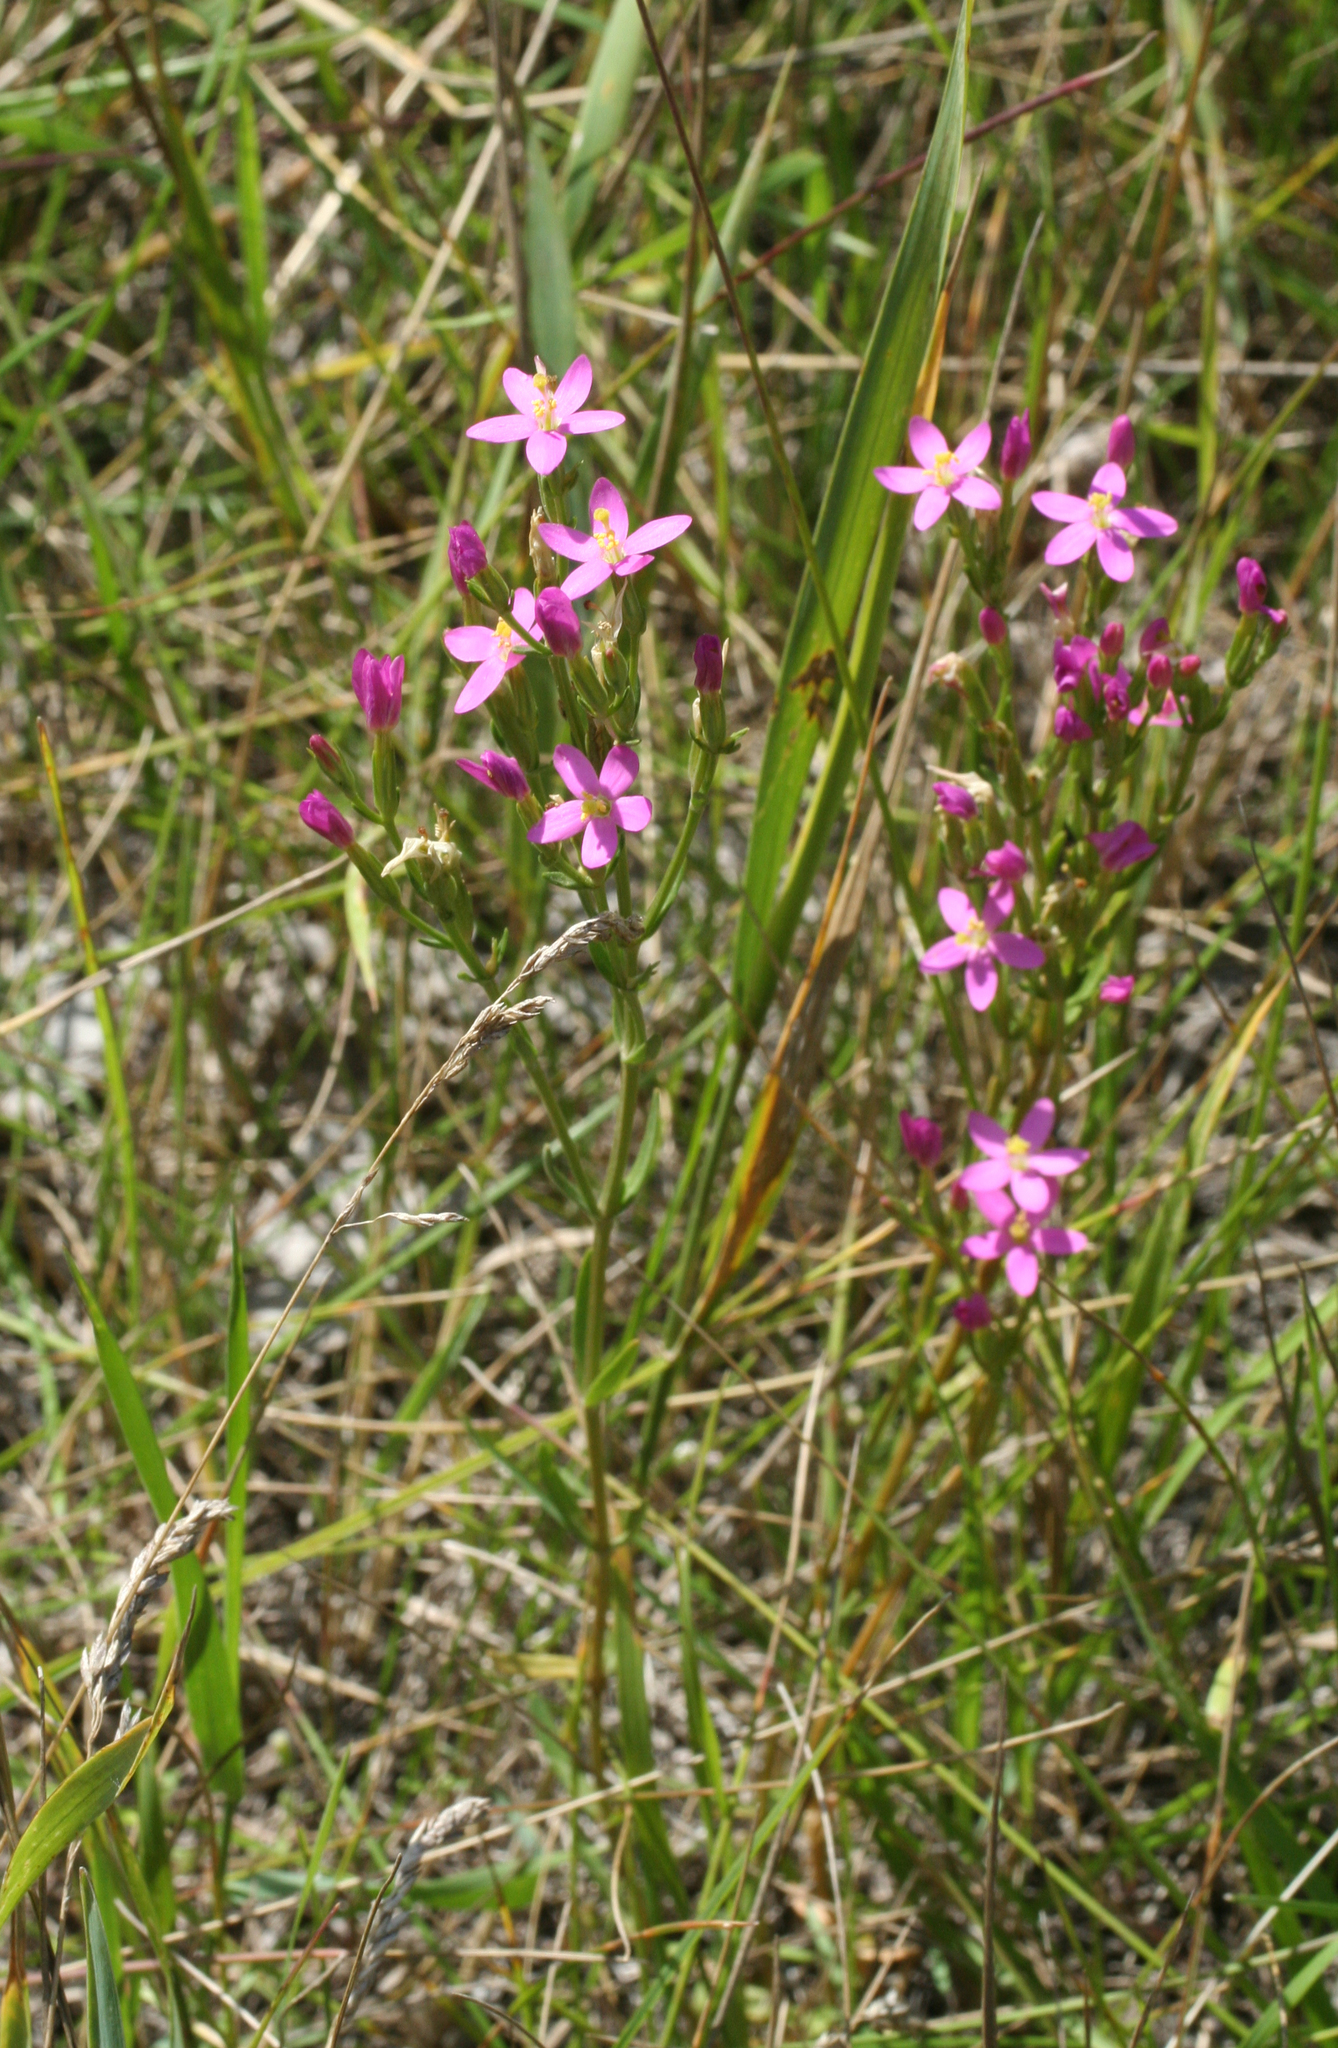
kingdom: Plantae
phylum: Tracheophyta
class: Magnoliopsida
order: Gentianales
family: Gentianaceae
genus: Centaurium
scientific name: Centaurium pulchellum
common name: Lesser centaury
